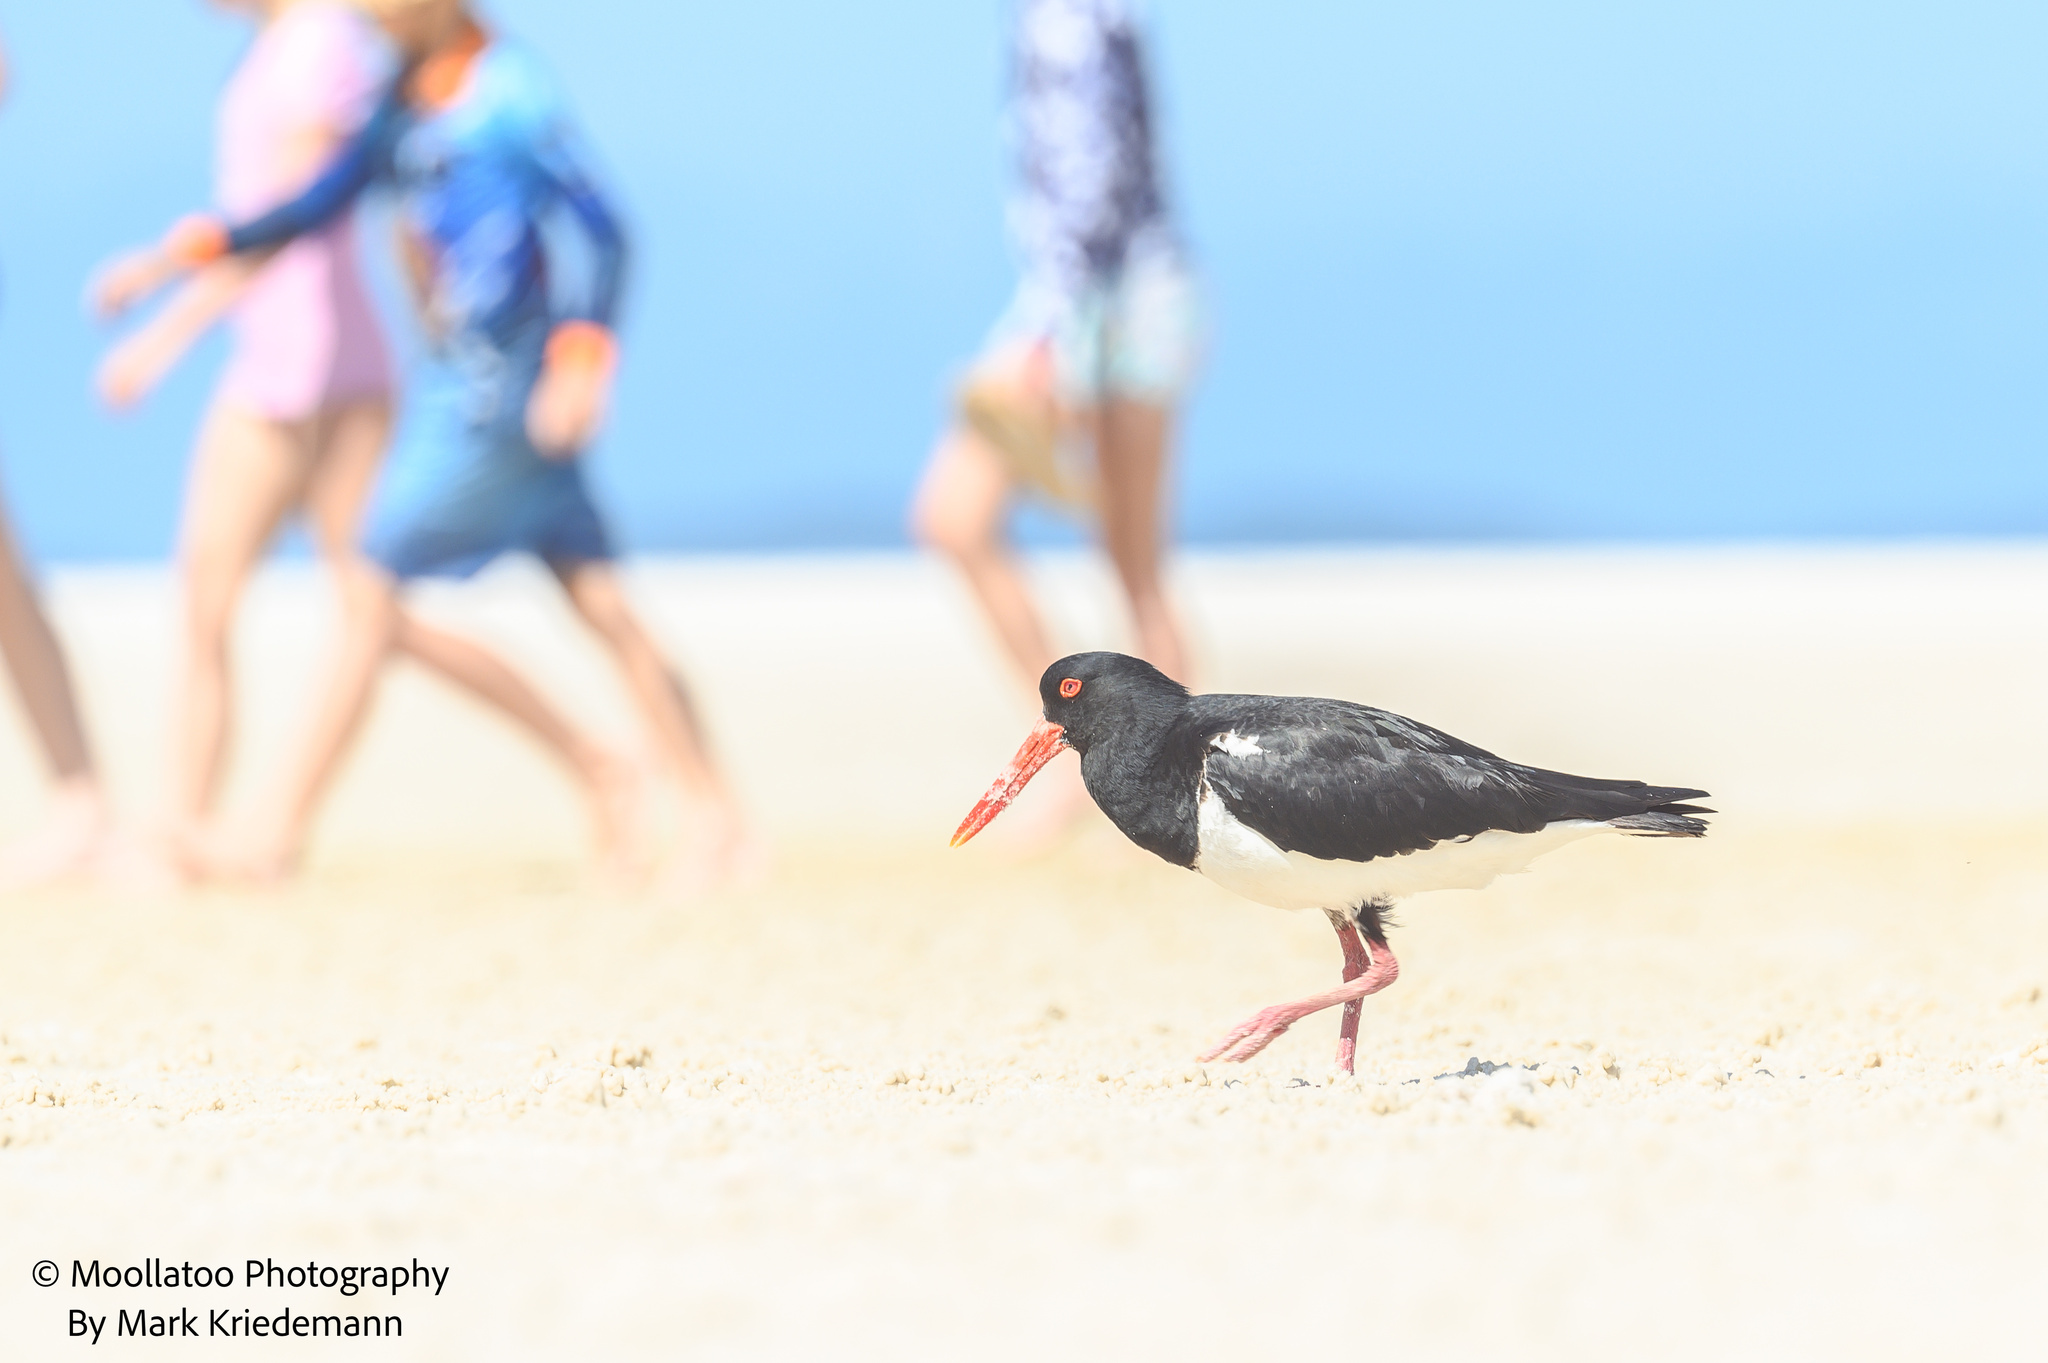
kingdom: Animalia
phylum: Chordata
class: Aves
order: Charadriiformes
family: Haematopodidae
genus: Haematopus
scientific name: Haematopus longirostris
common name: Pied oystercatcher
